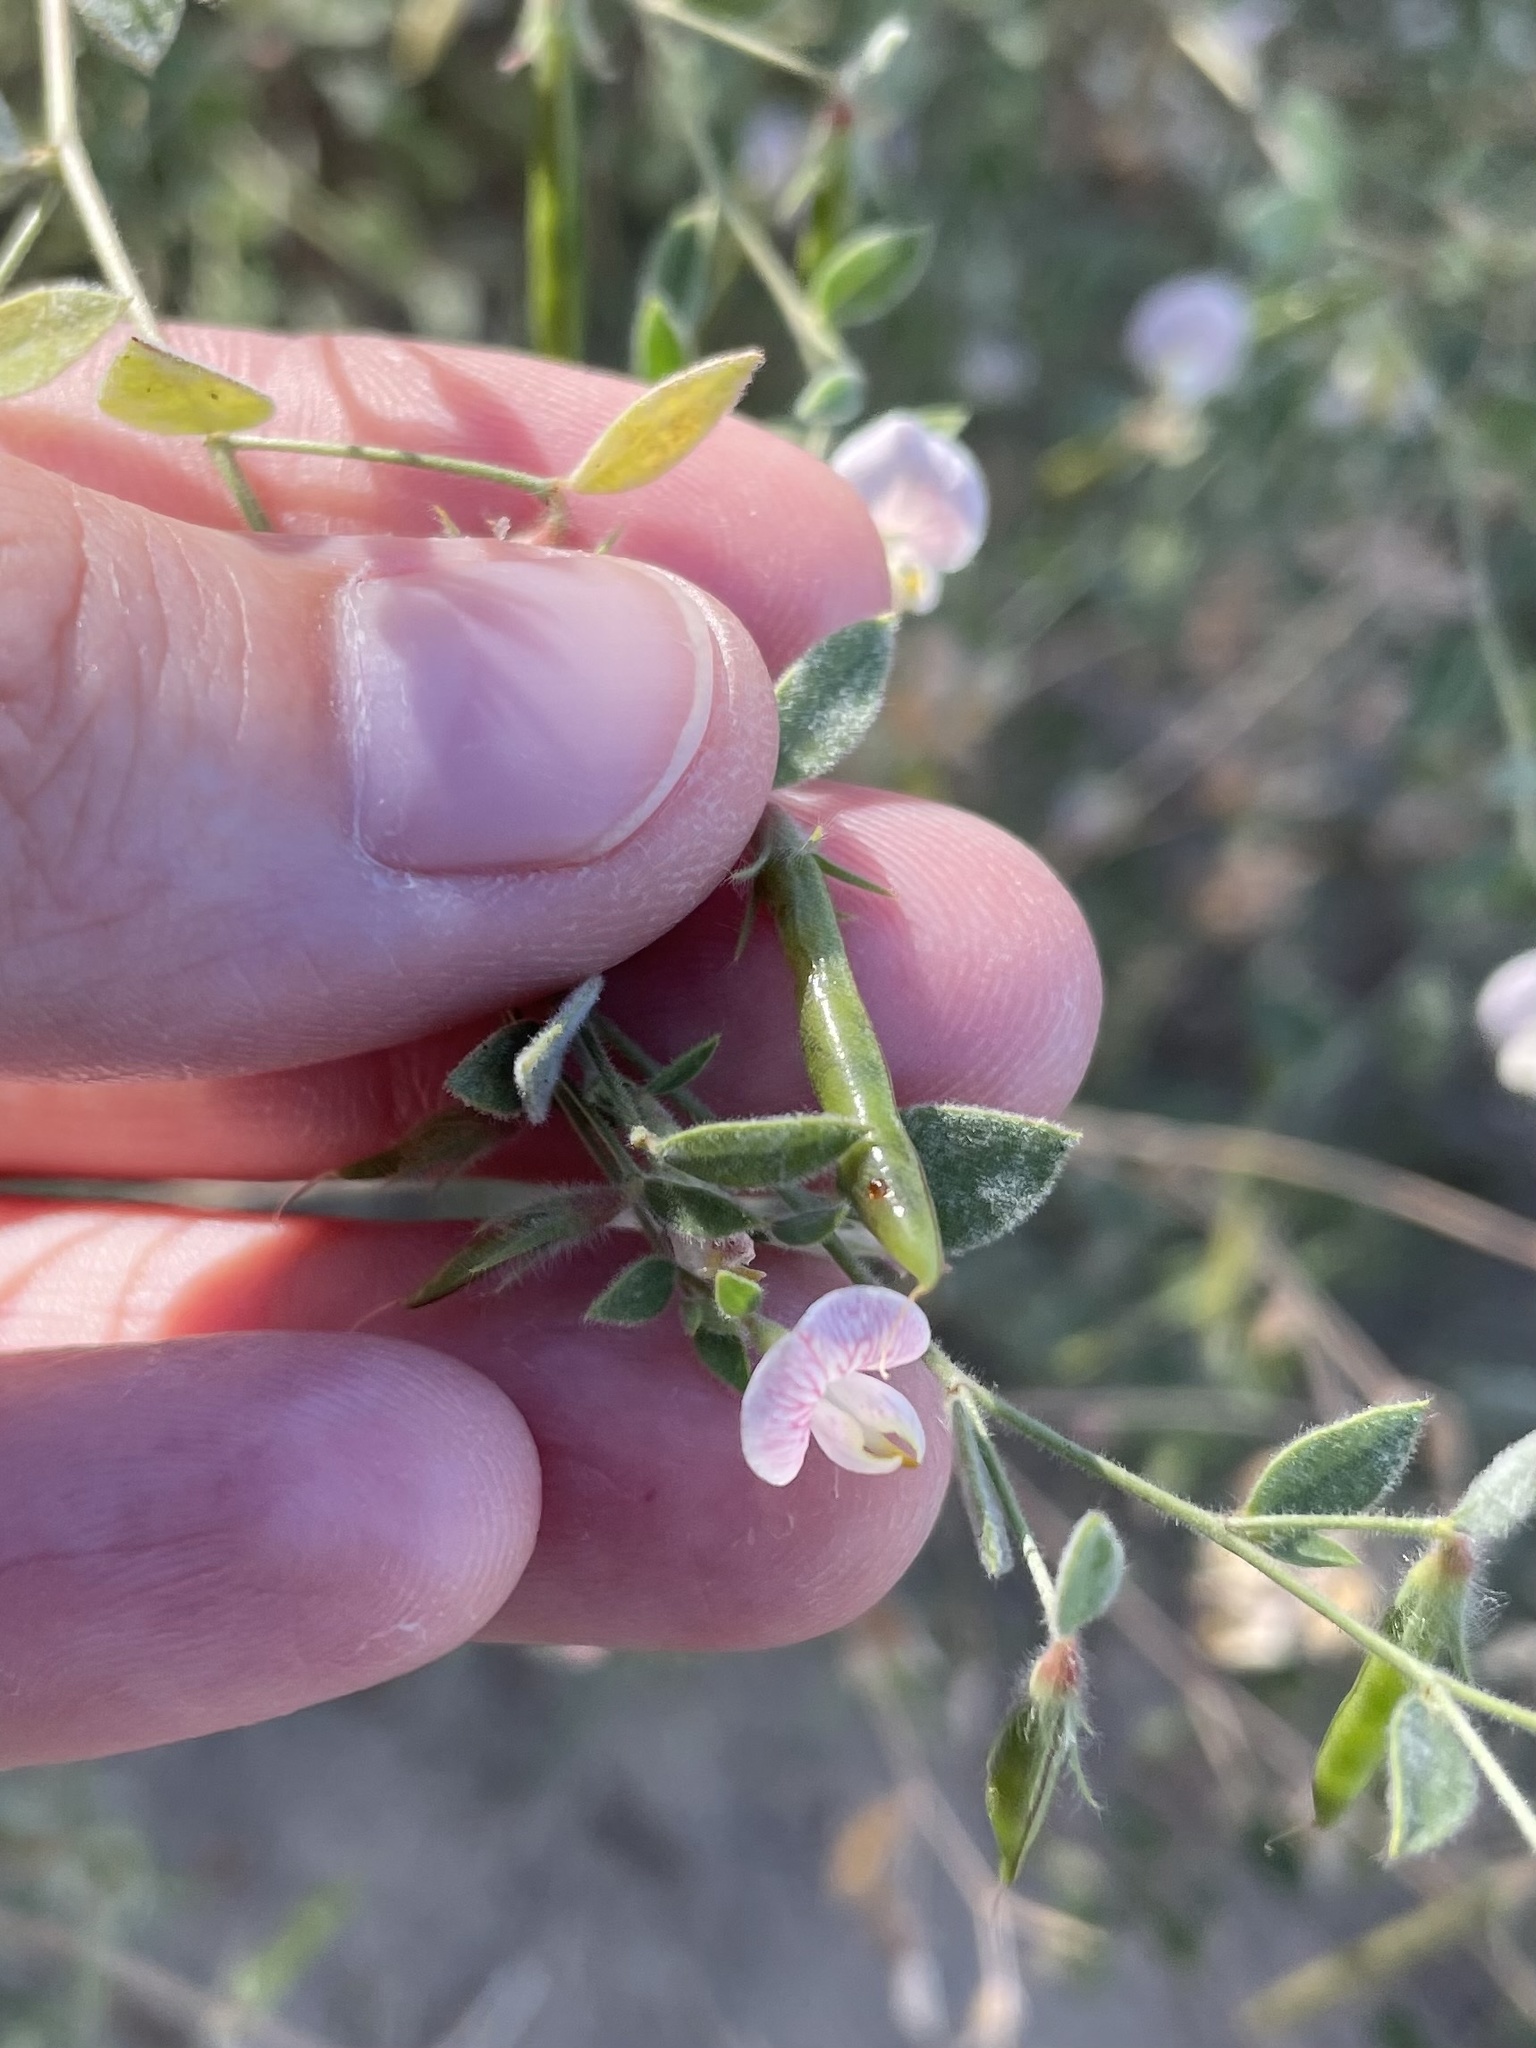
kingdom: Plantae
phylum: Tracheophyta
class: Magnoliopsida
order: Fabales
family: Fabaceae
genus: Acmispon
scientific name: Acmispon americanus
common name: American bird's-foot trefoil
